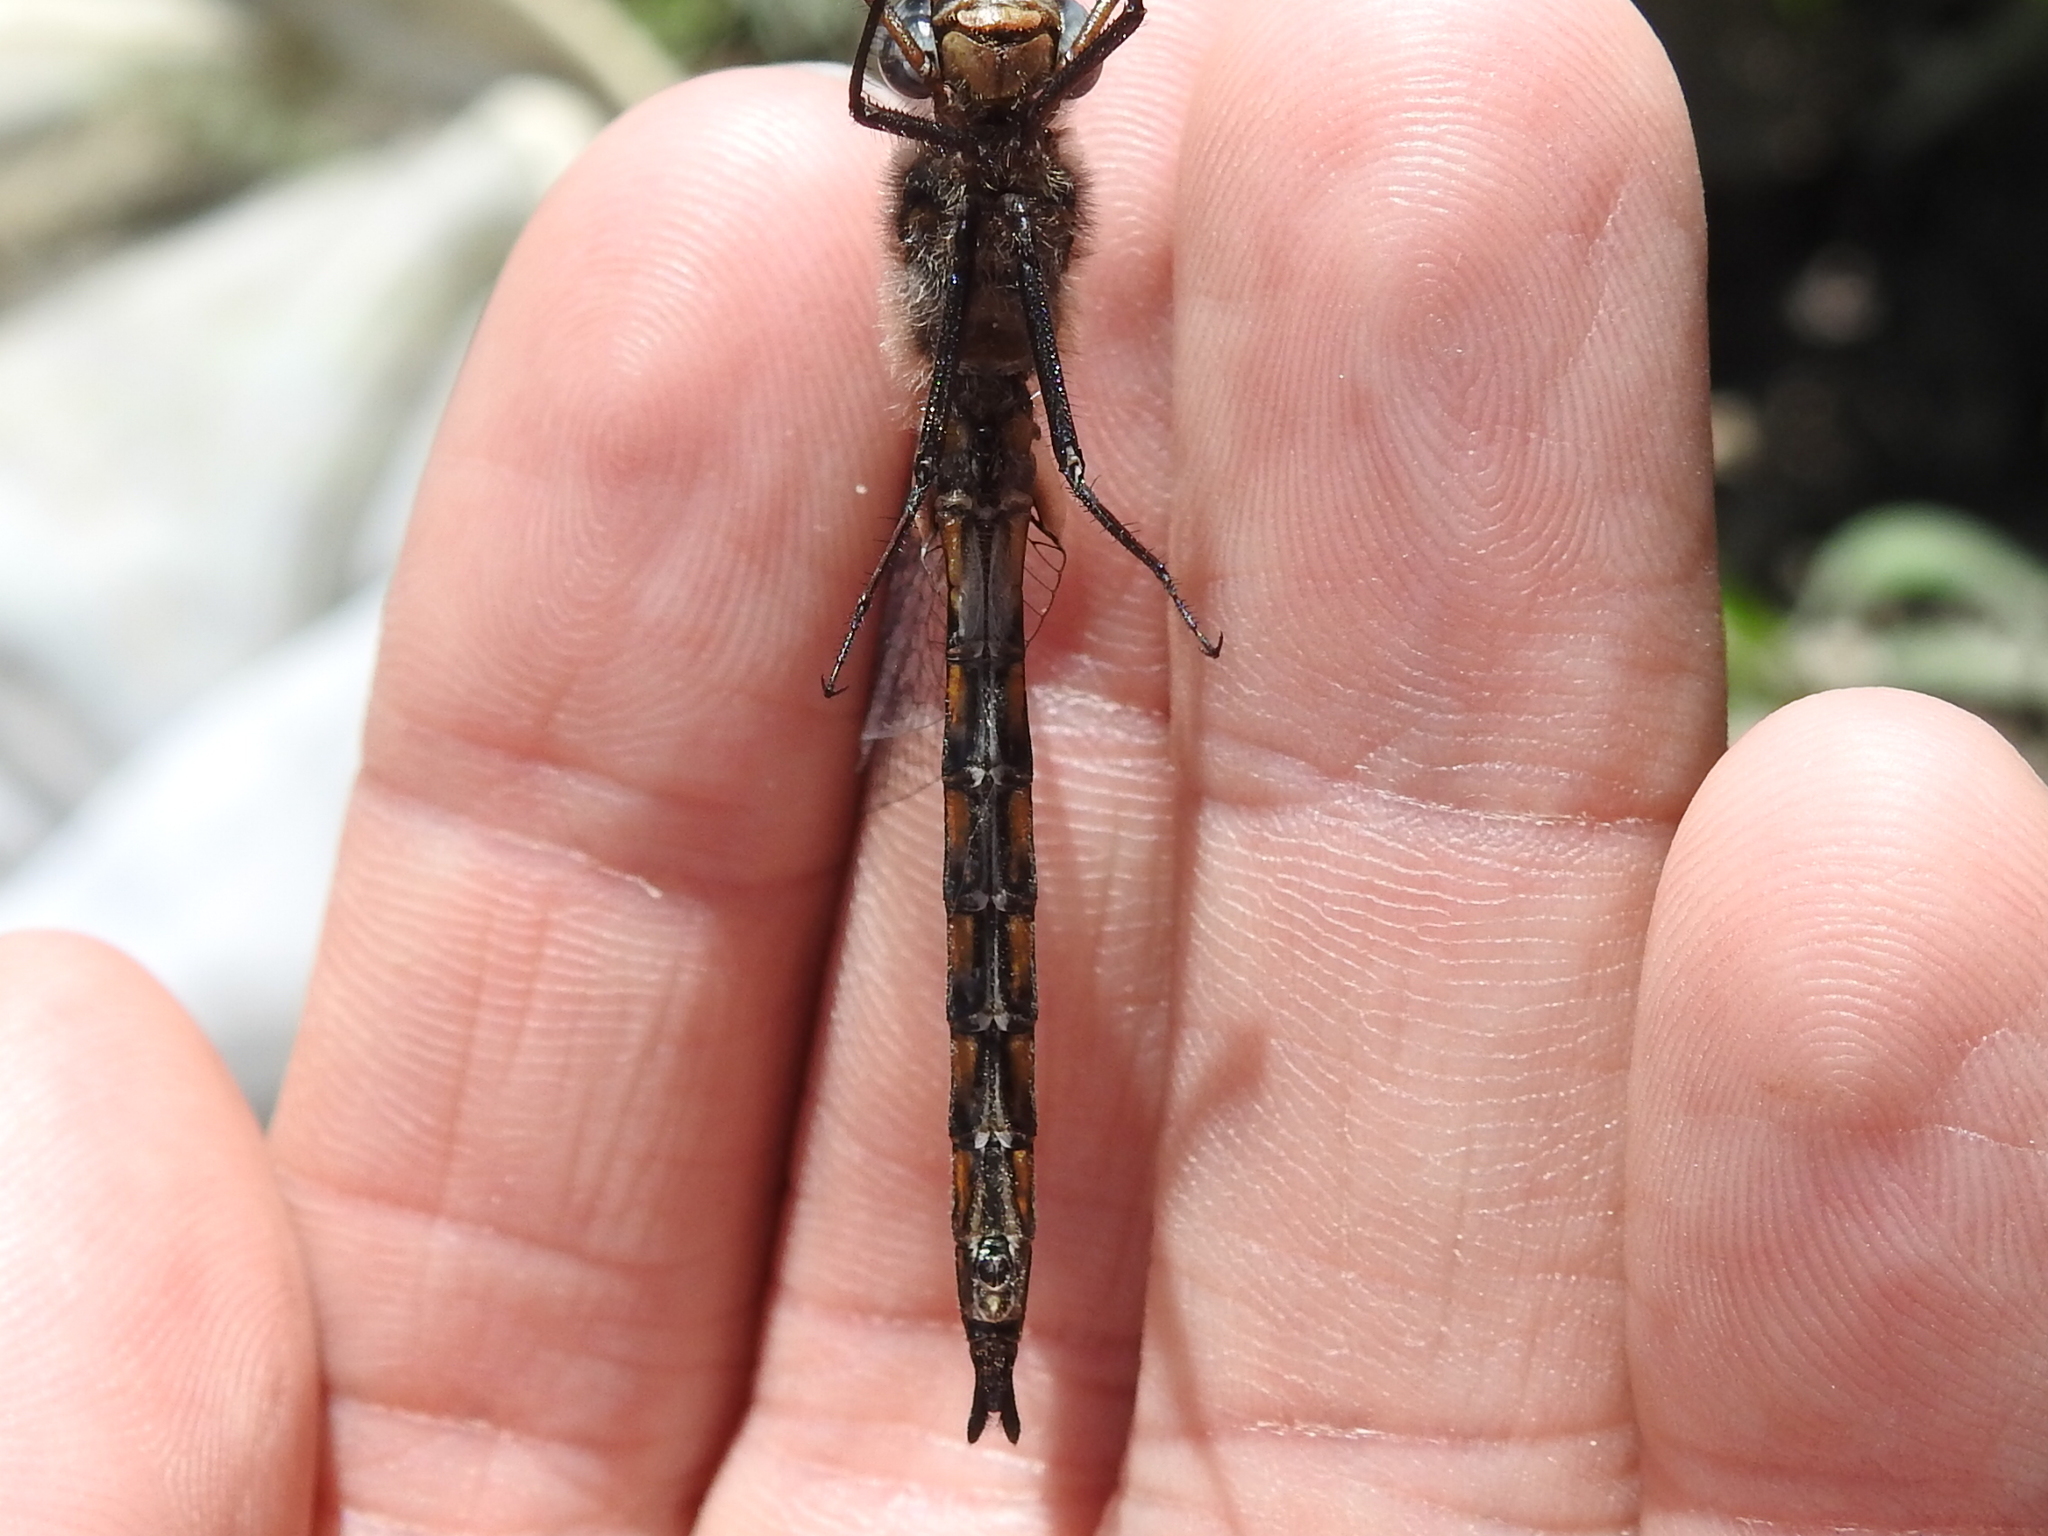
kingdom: Animalia
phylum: Arthropoda
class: Insecta
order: Odonata
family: Corduliidae
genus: Epitheca
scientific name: Epitheca petechialis
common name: Dot-winged baskettail
